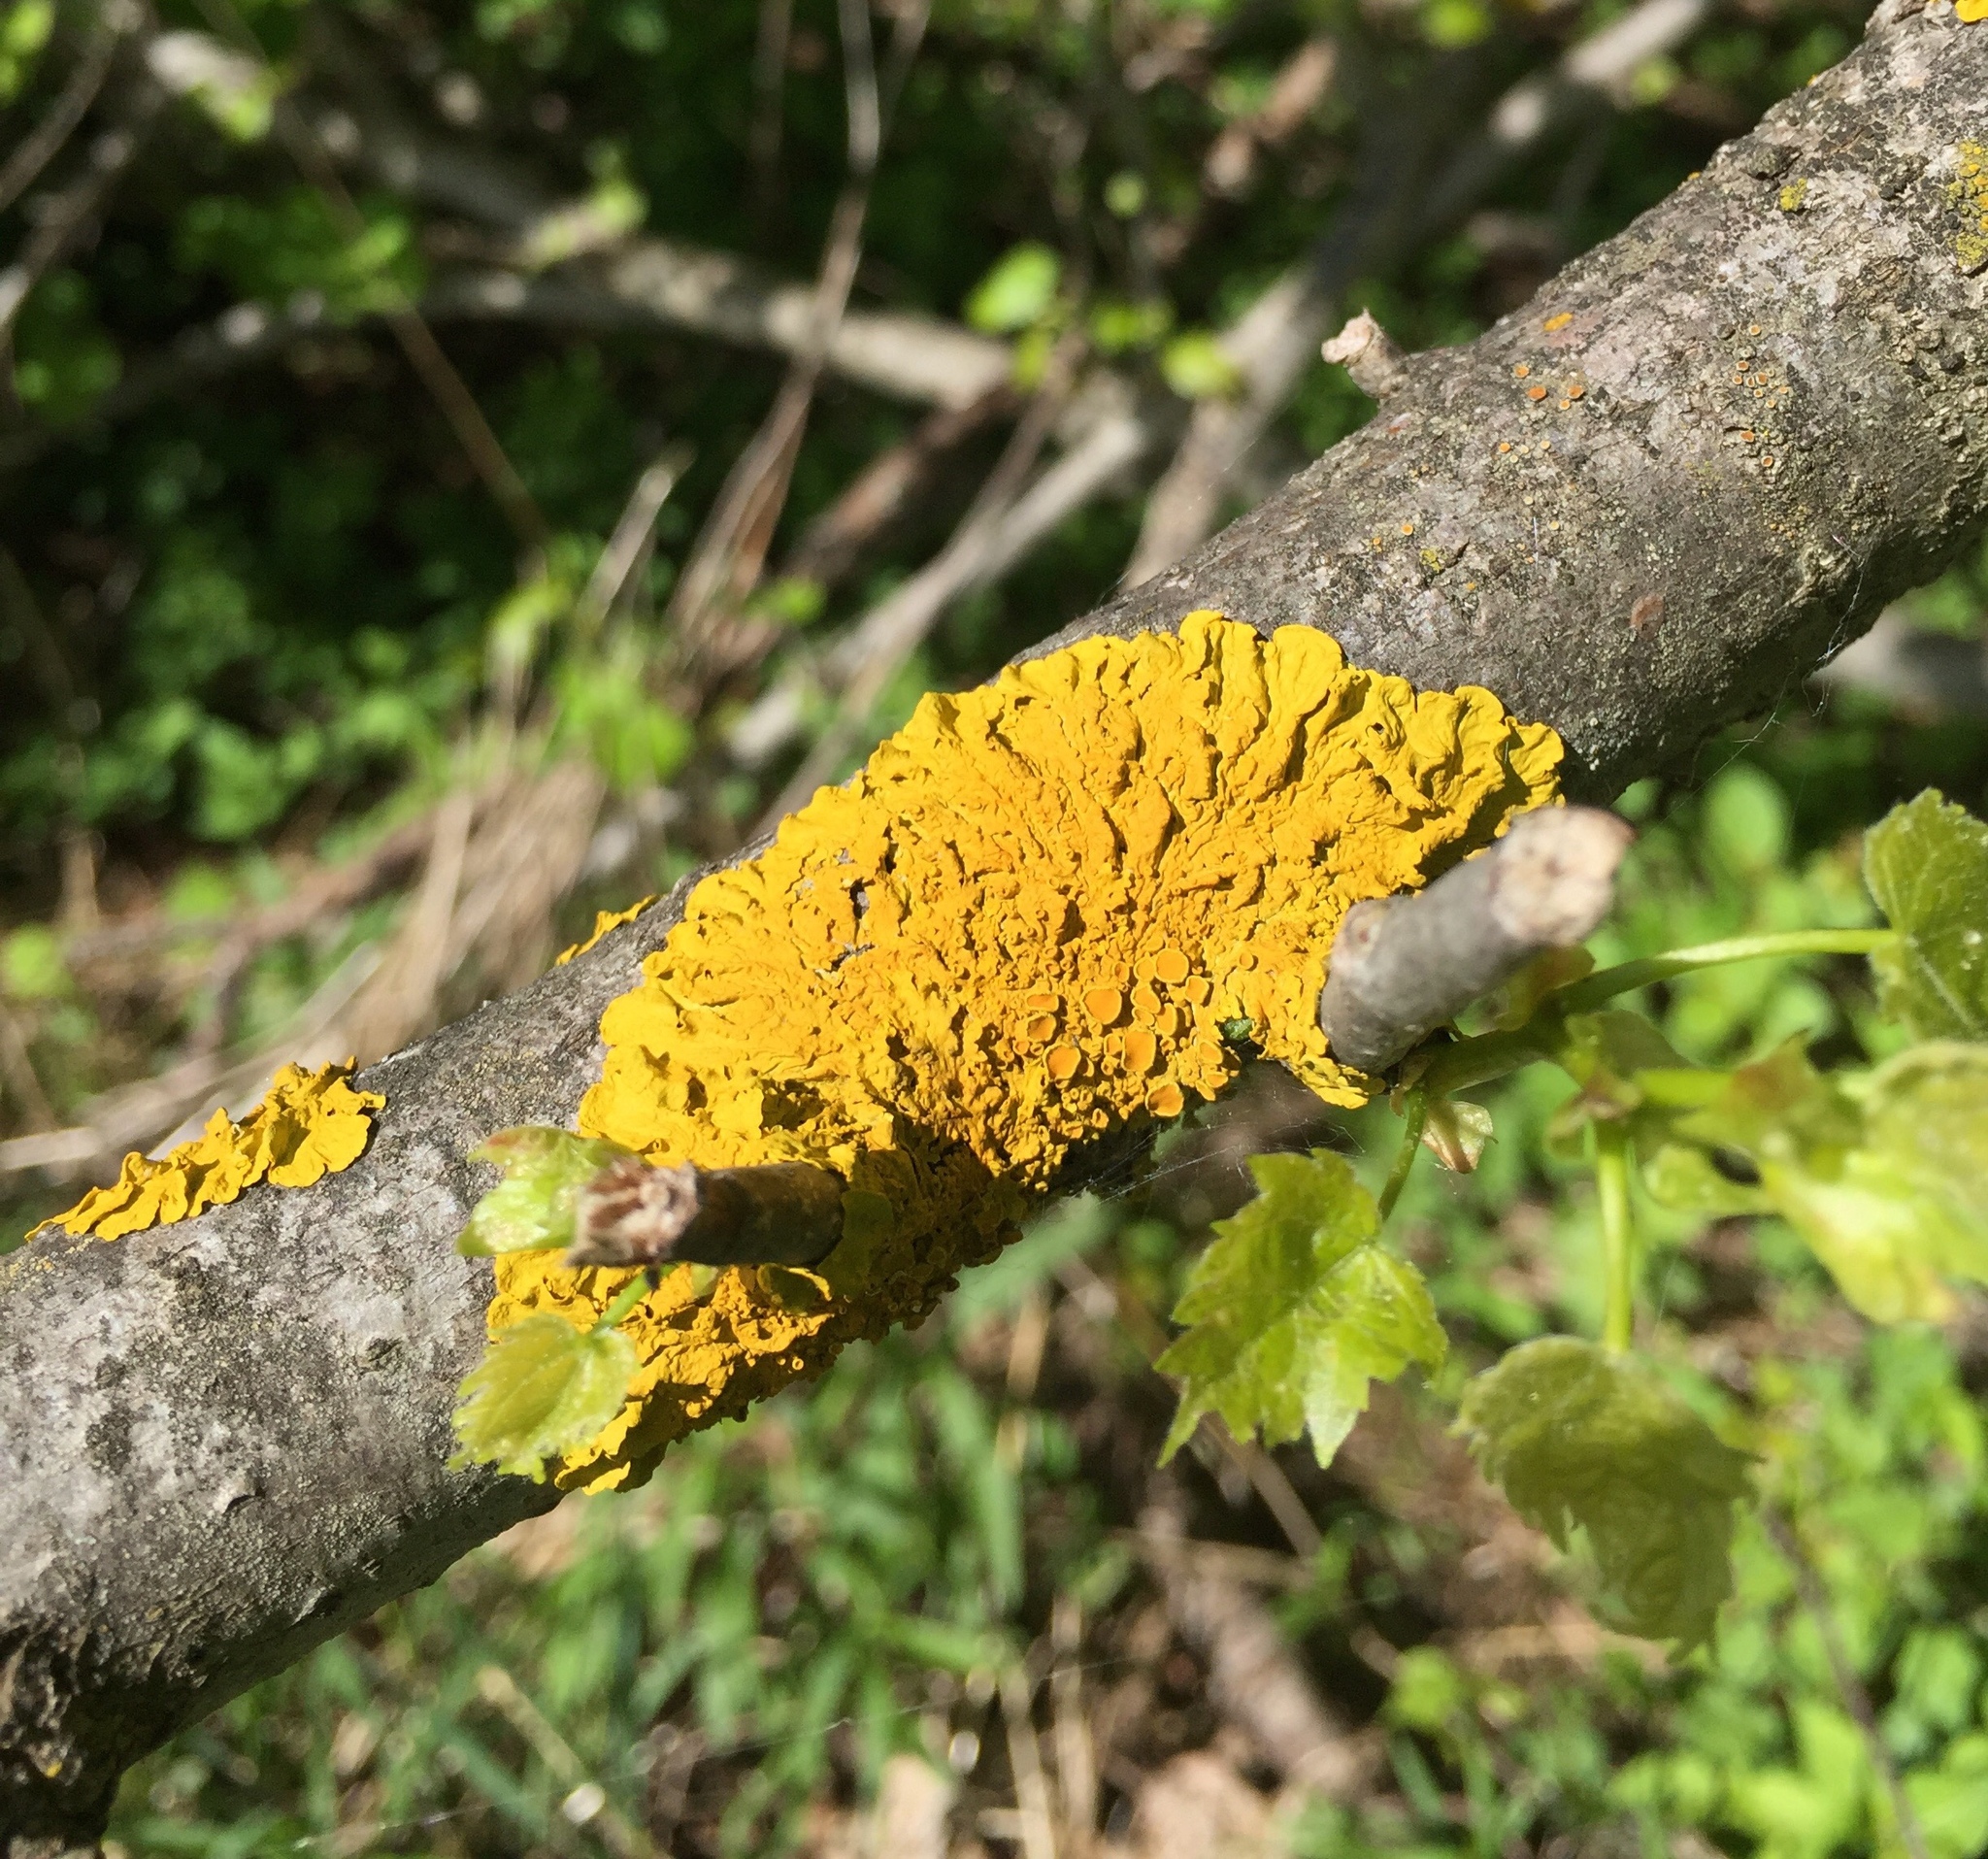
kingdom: Fungi
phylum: Ascomycota
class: Lecanoromycetes
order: Teloschistales
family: Teloschistaceae
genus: Xanthoria
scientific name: Xanthoria parietina
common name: Common orange lichen
